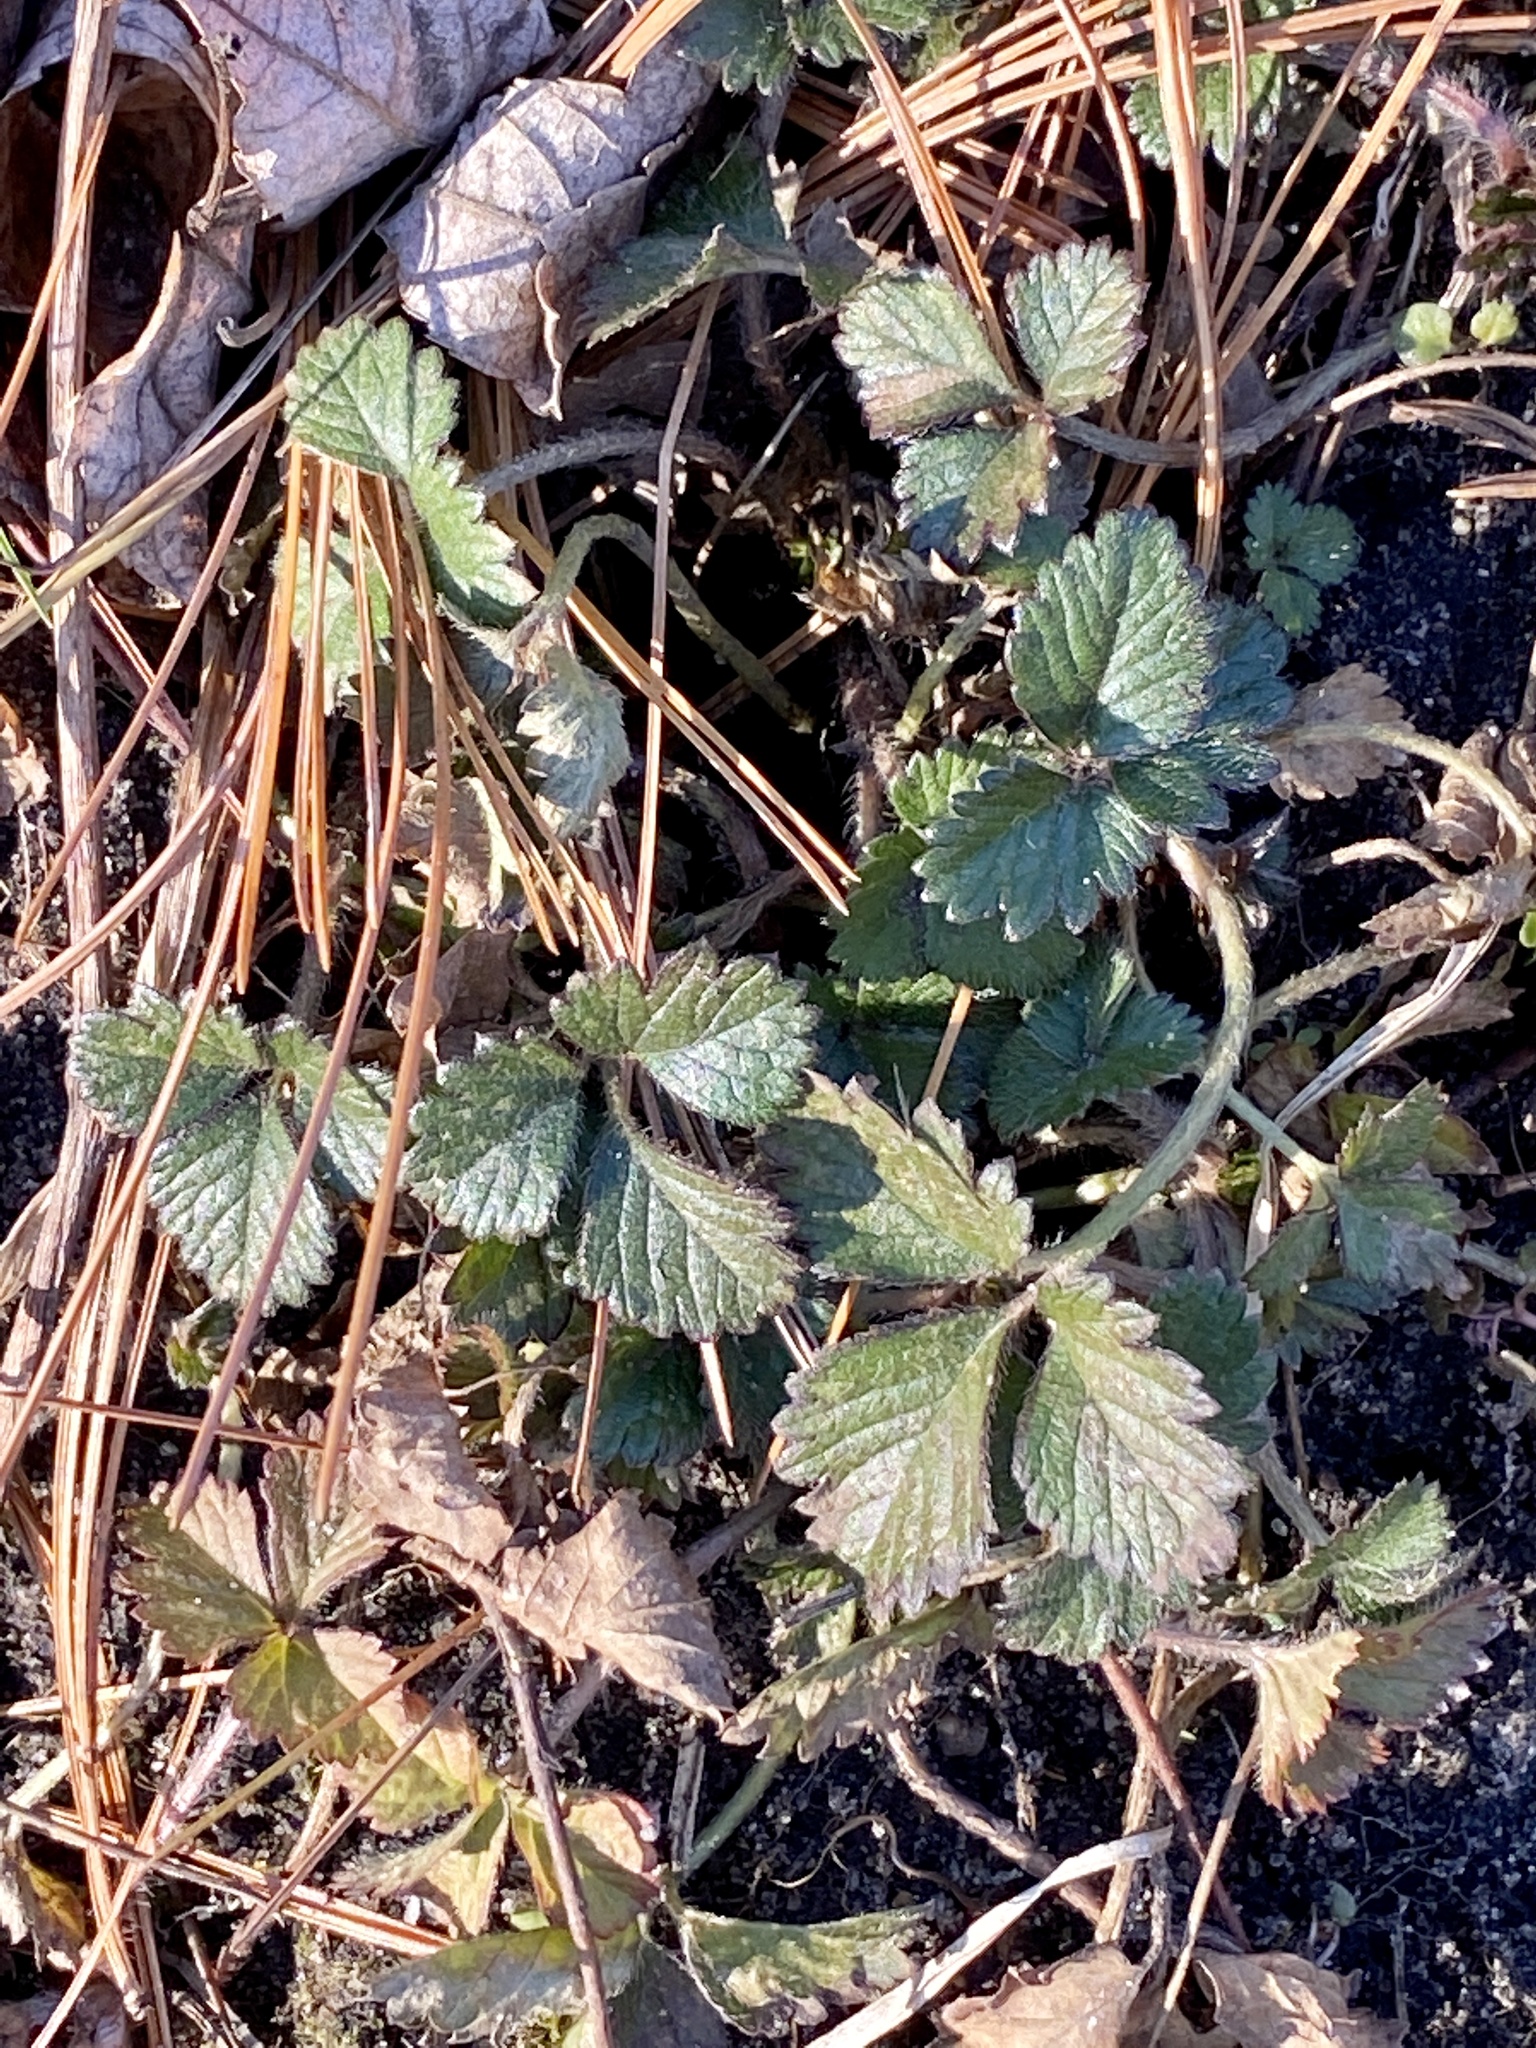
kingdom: Plantae
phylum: Tracheophyta
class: Magnoliopsida
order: Rosales
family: Rosaceae
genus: Potentilla
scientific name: Potentilla indica
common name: Yellow-flowered strawberry
